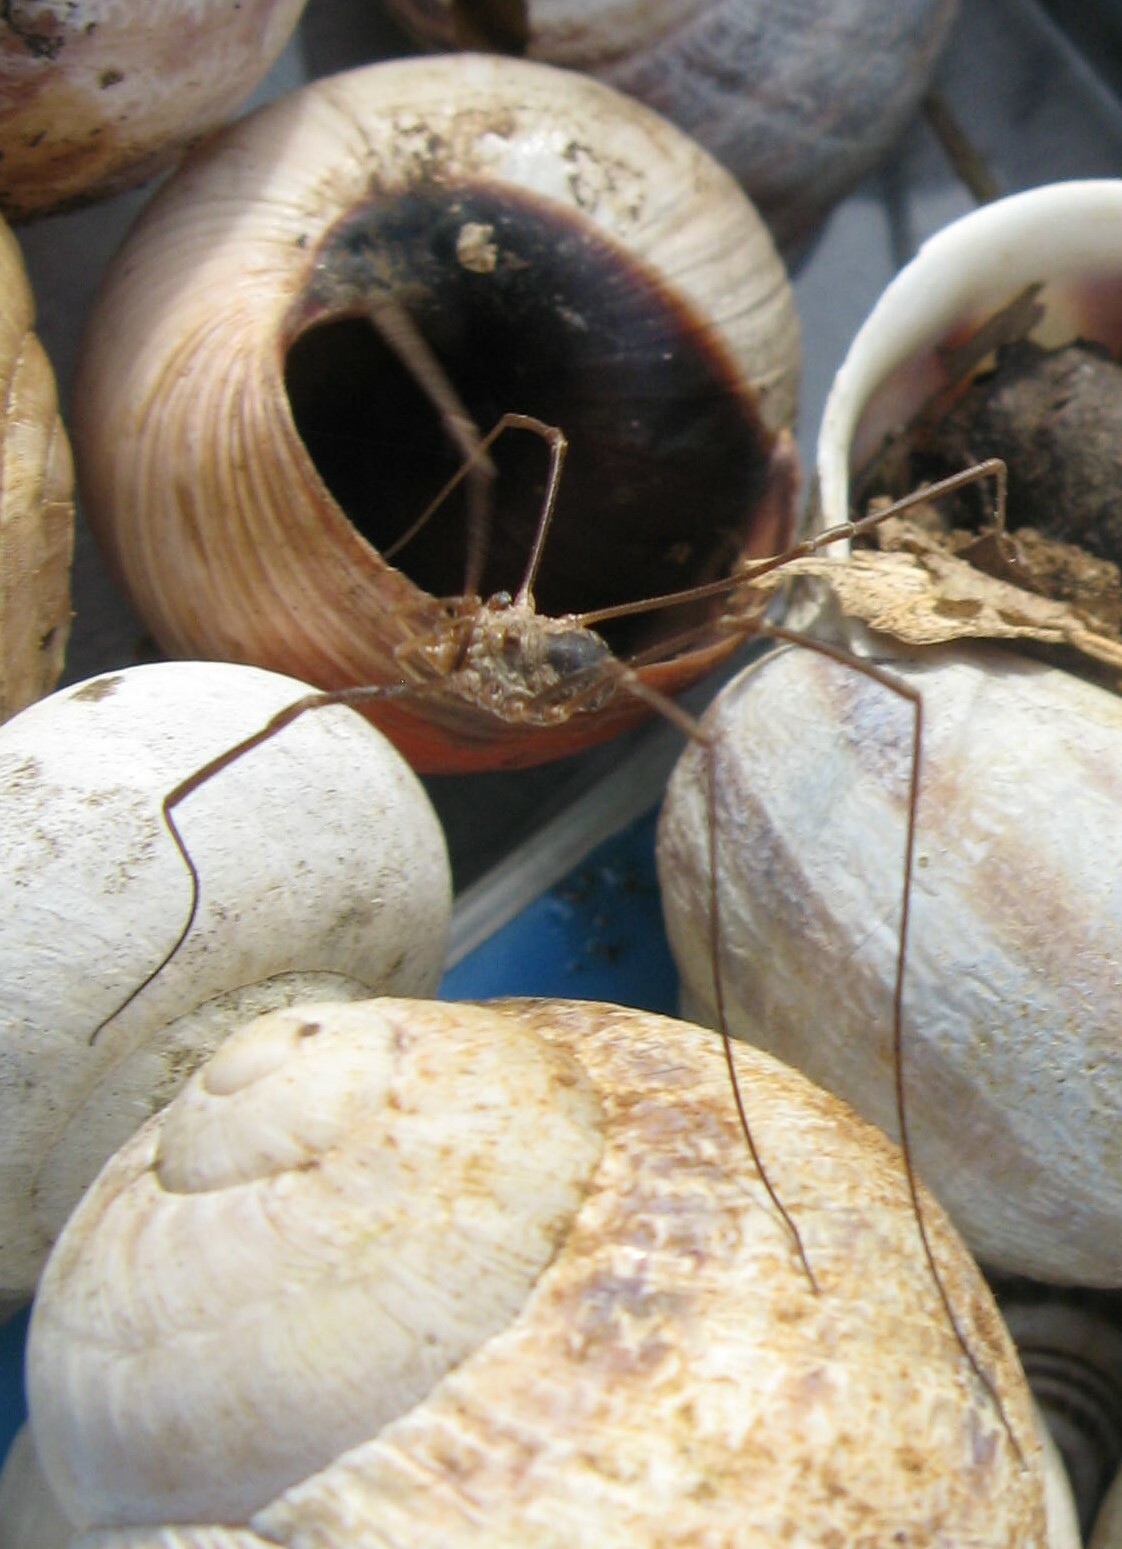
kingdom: Animalia
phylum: Arthropoda
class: Arachnida
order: Opiliones
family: Phalangiidae
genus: Phalangium
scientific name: Phalangium opilio
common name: Daddy longleg
